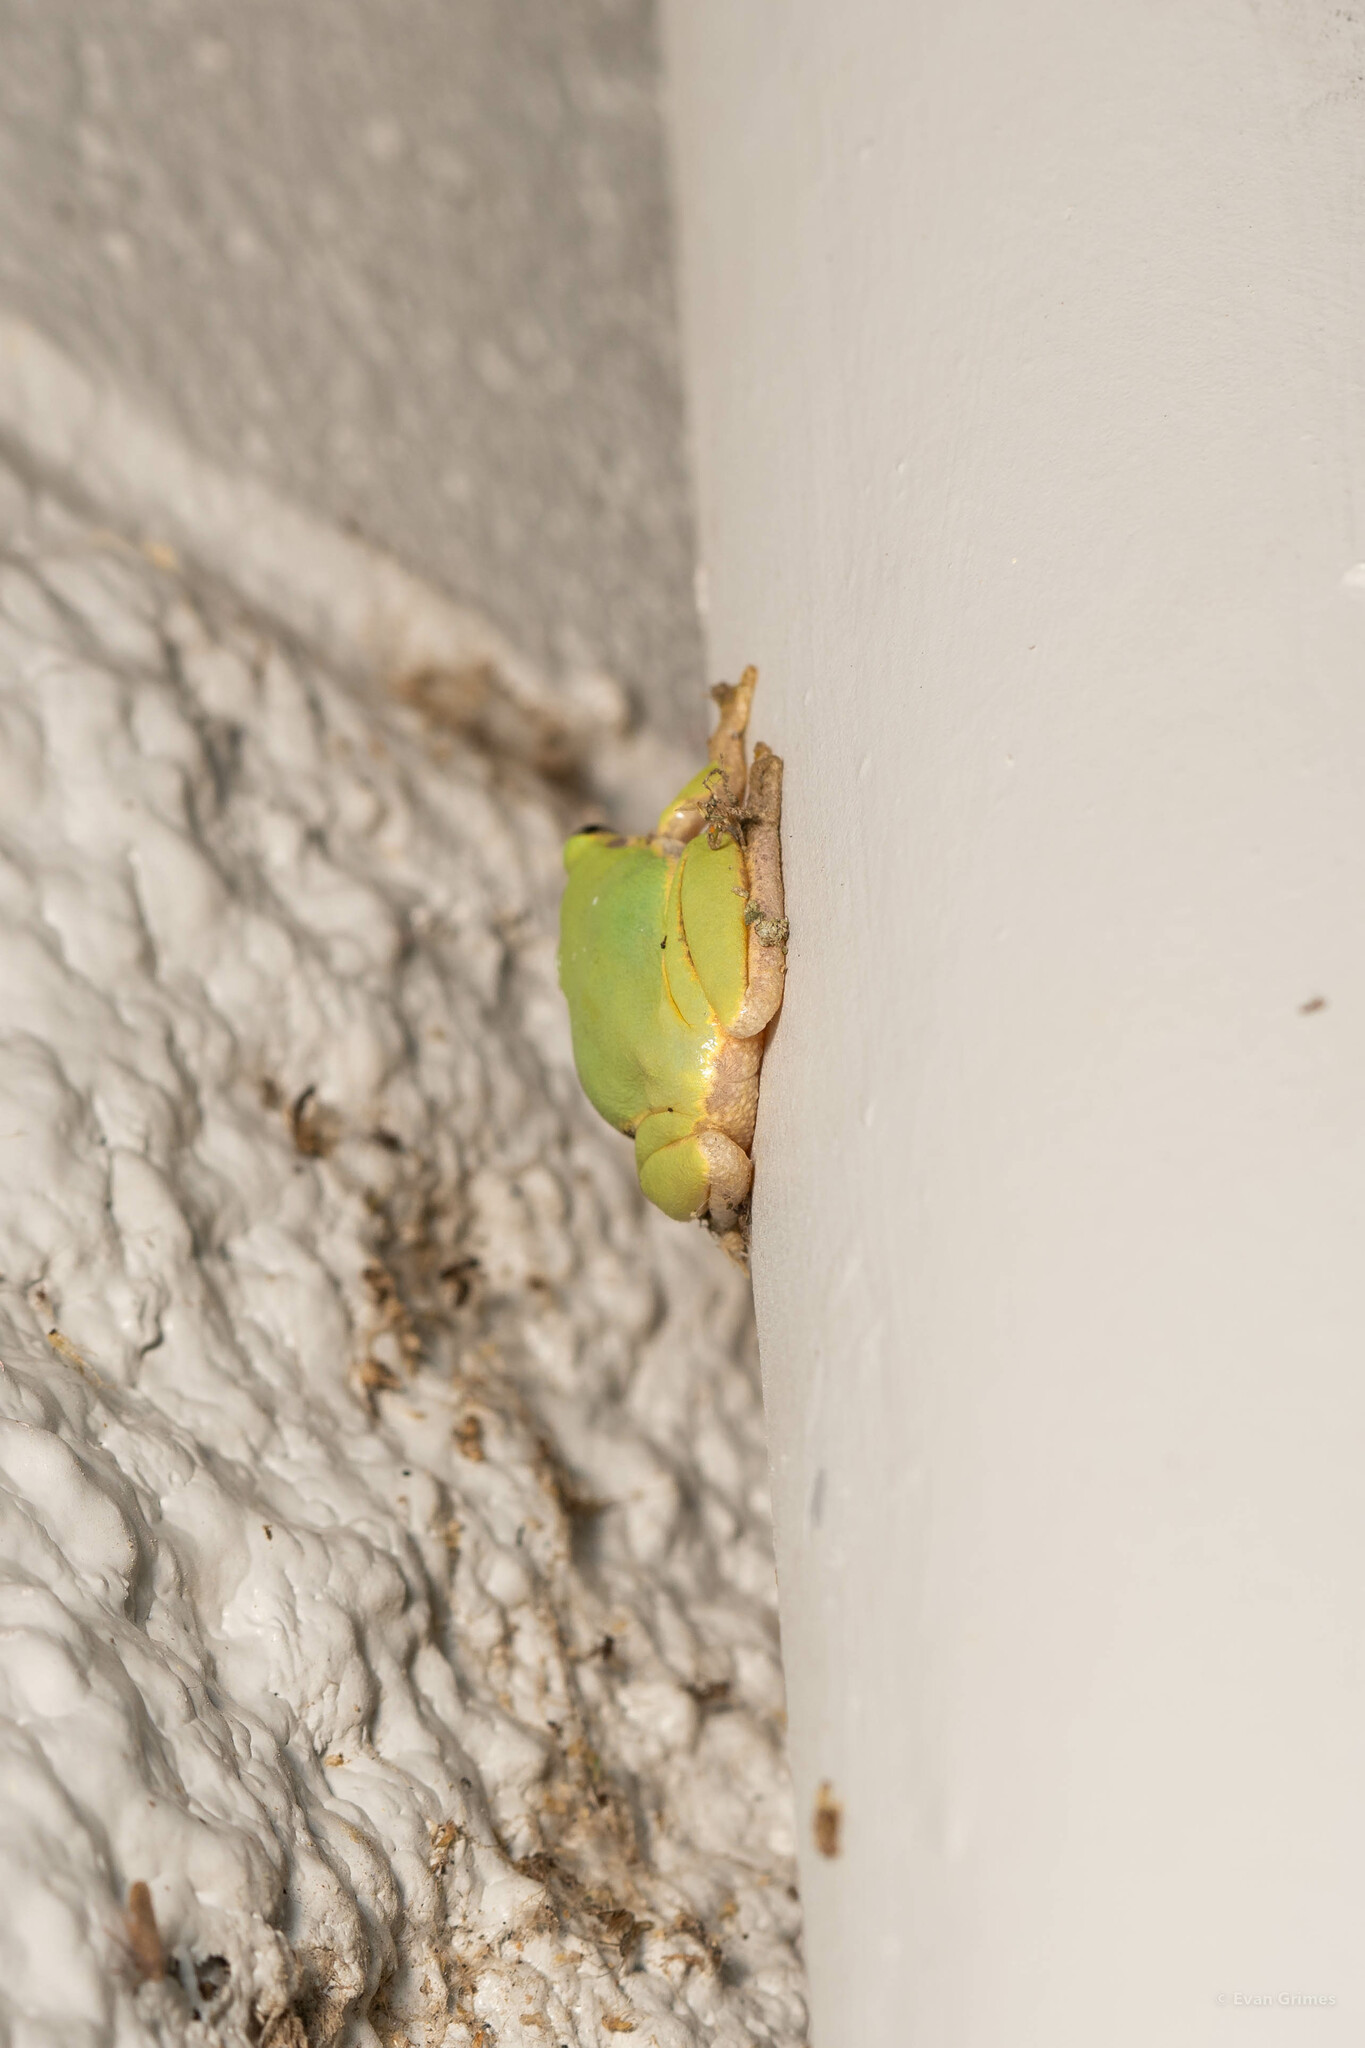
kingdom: Animalia
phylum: Chordata
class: Amphibia
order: Anura
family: Hylidae
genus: Dryophytes
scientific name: Dryophytes squirellus
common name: Squirrel treefrog
